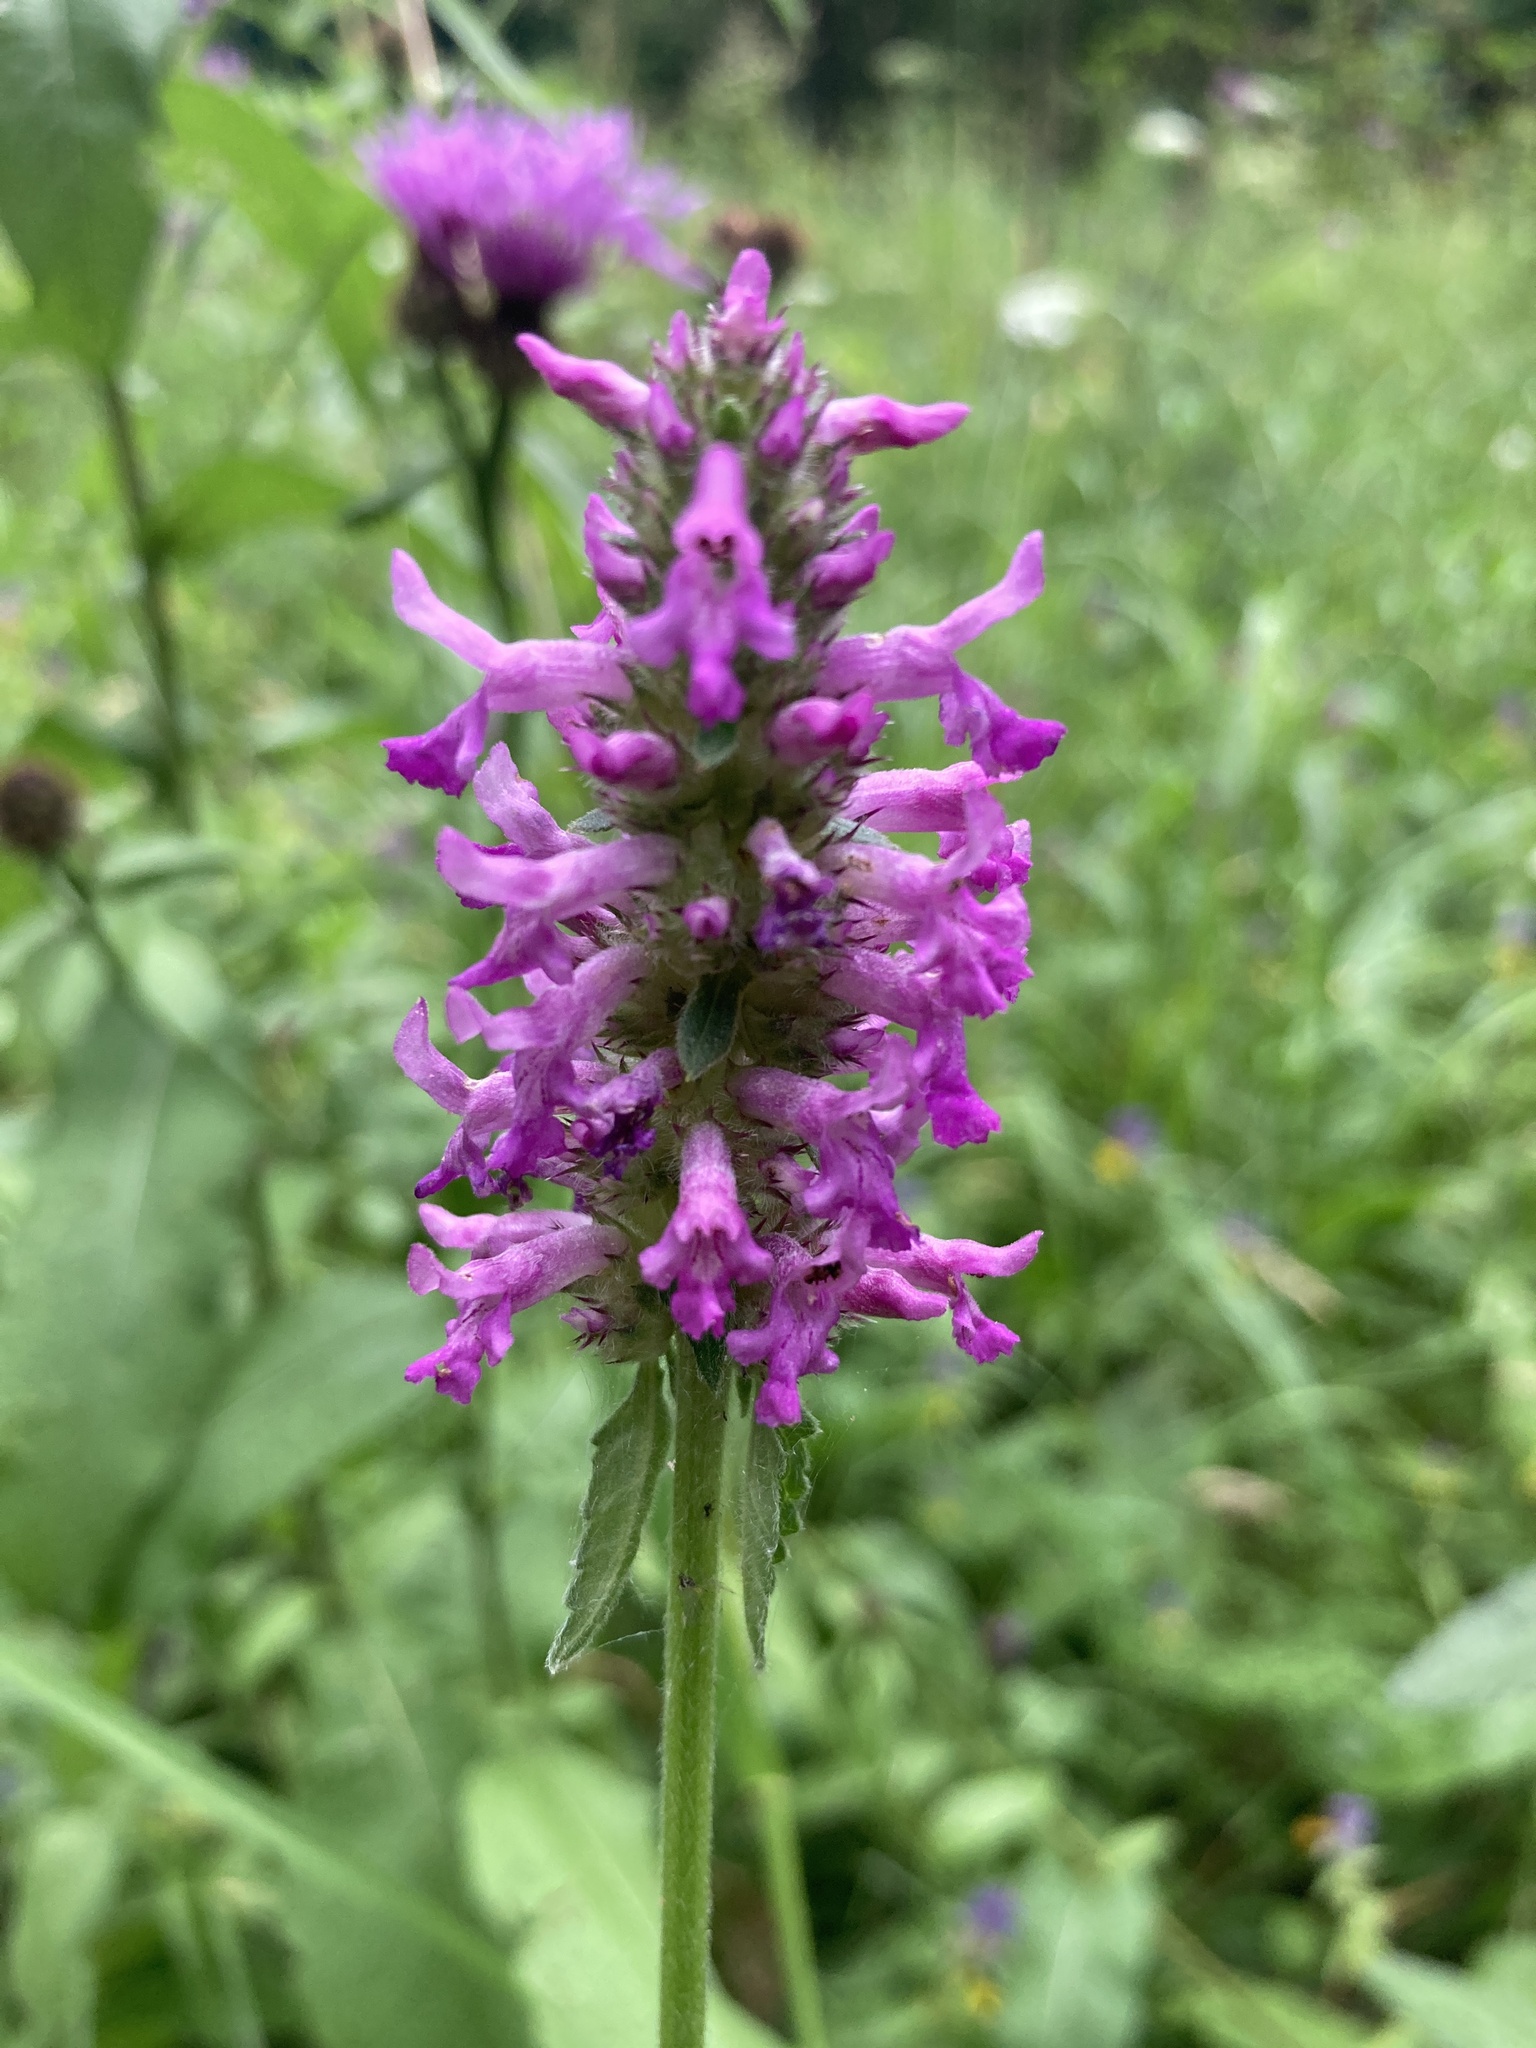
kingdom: Plantae
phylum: Tracheophyta
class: Magnoliopsida
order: Lamiales
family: Lamiaceae
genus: Betonica
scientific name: Betonica officinalis
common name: Bishop's-wort
